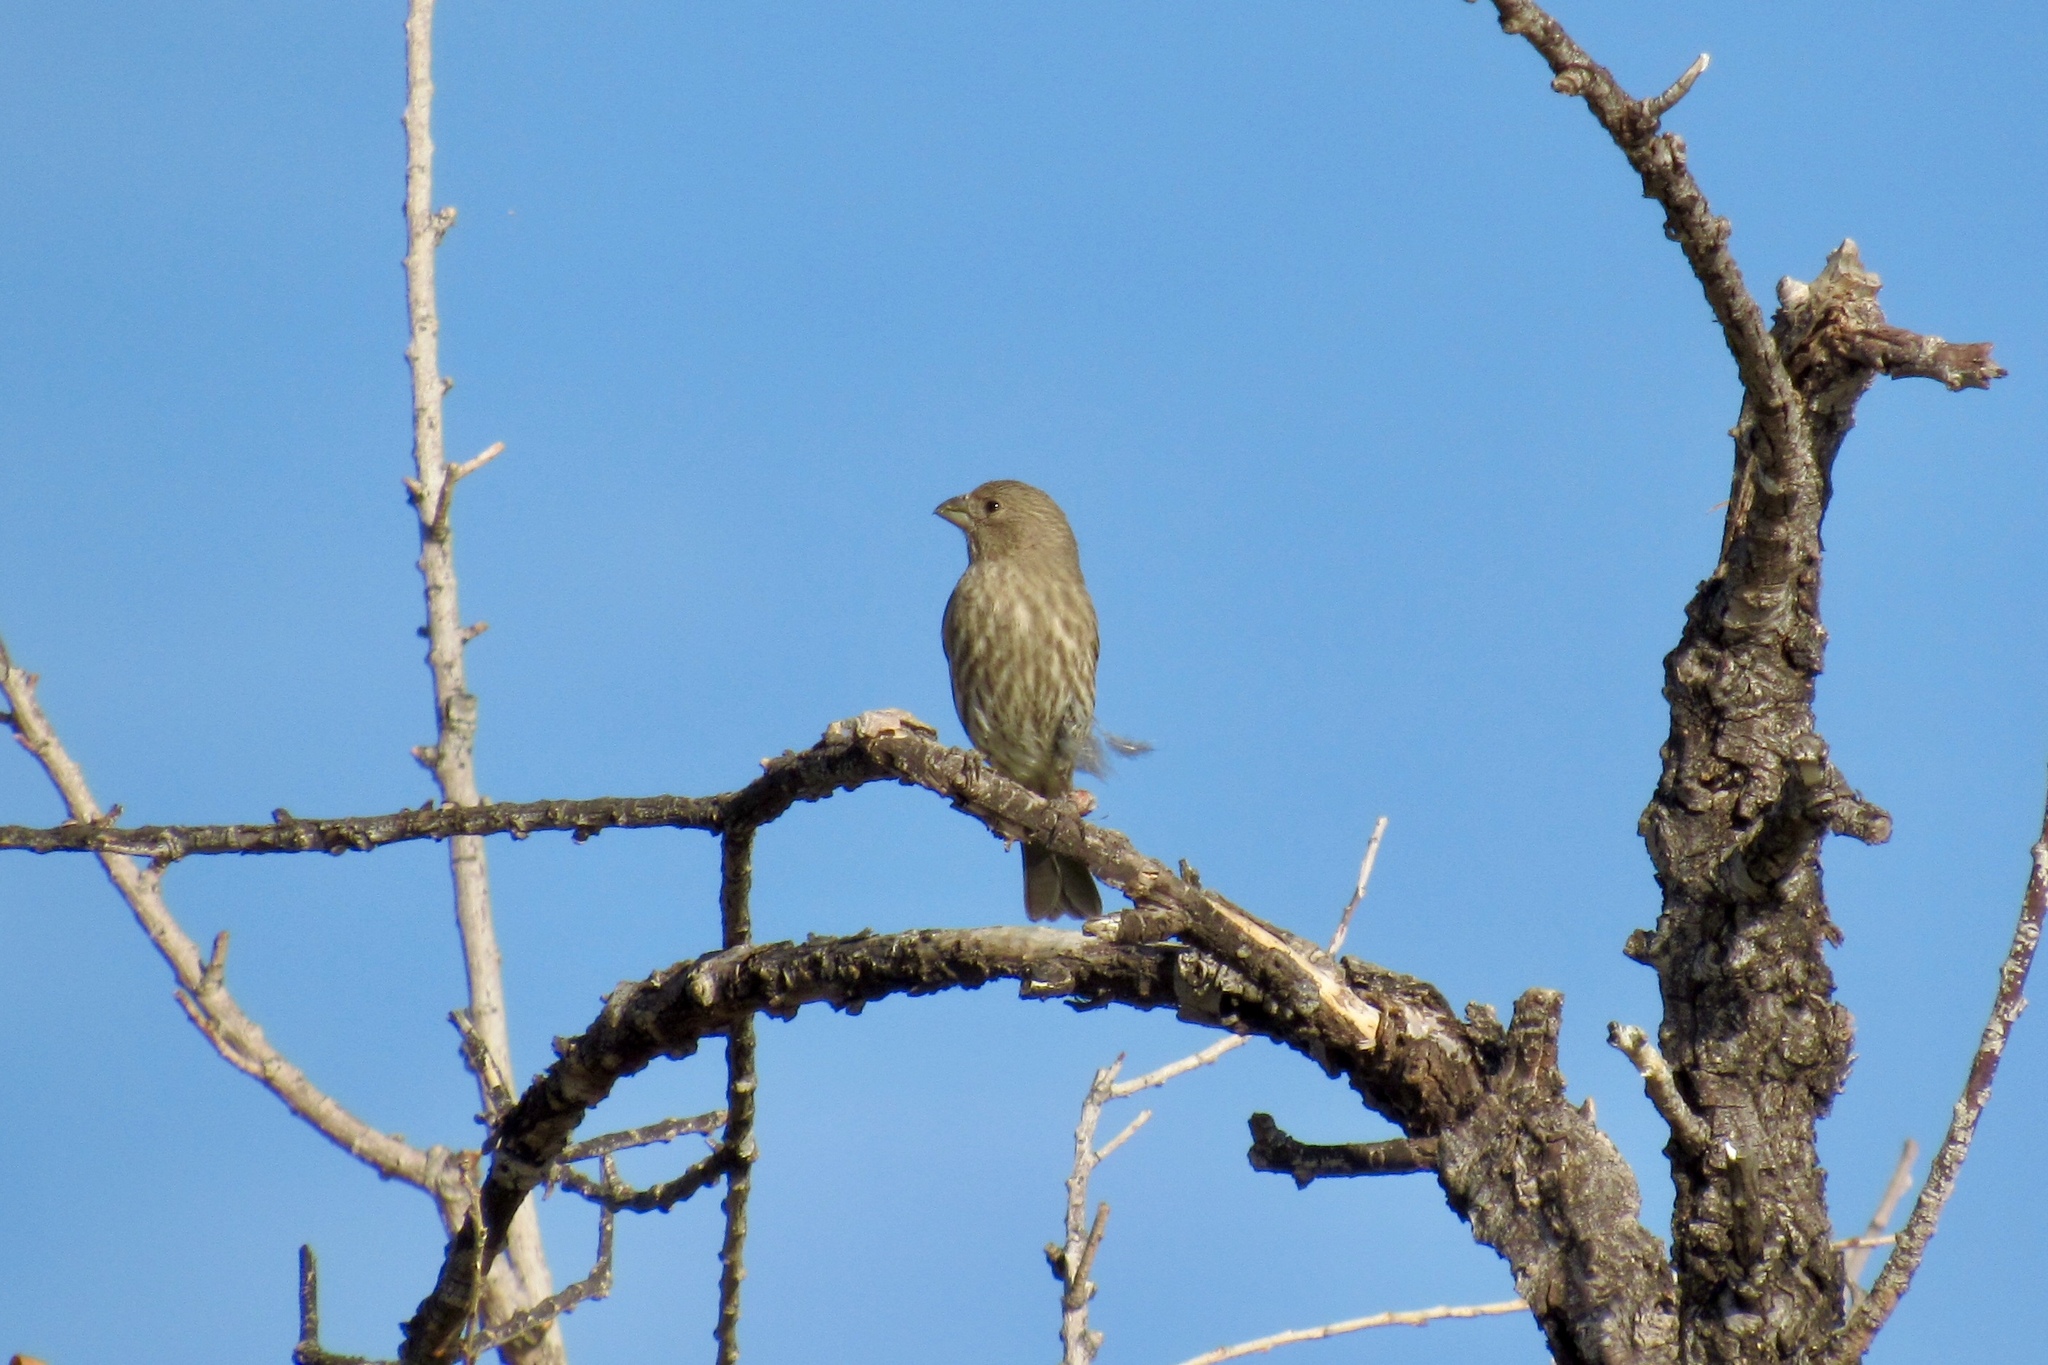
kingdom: Animalia
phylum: Chordata
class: Aves
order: Passeriformes
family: Fringillidae
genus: Haemorhous
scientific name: Haemorhous mexicanus
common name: House finch
